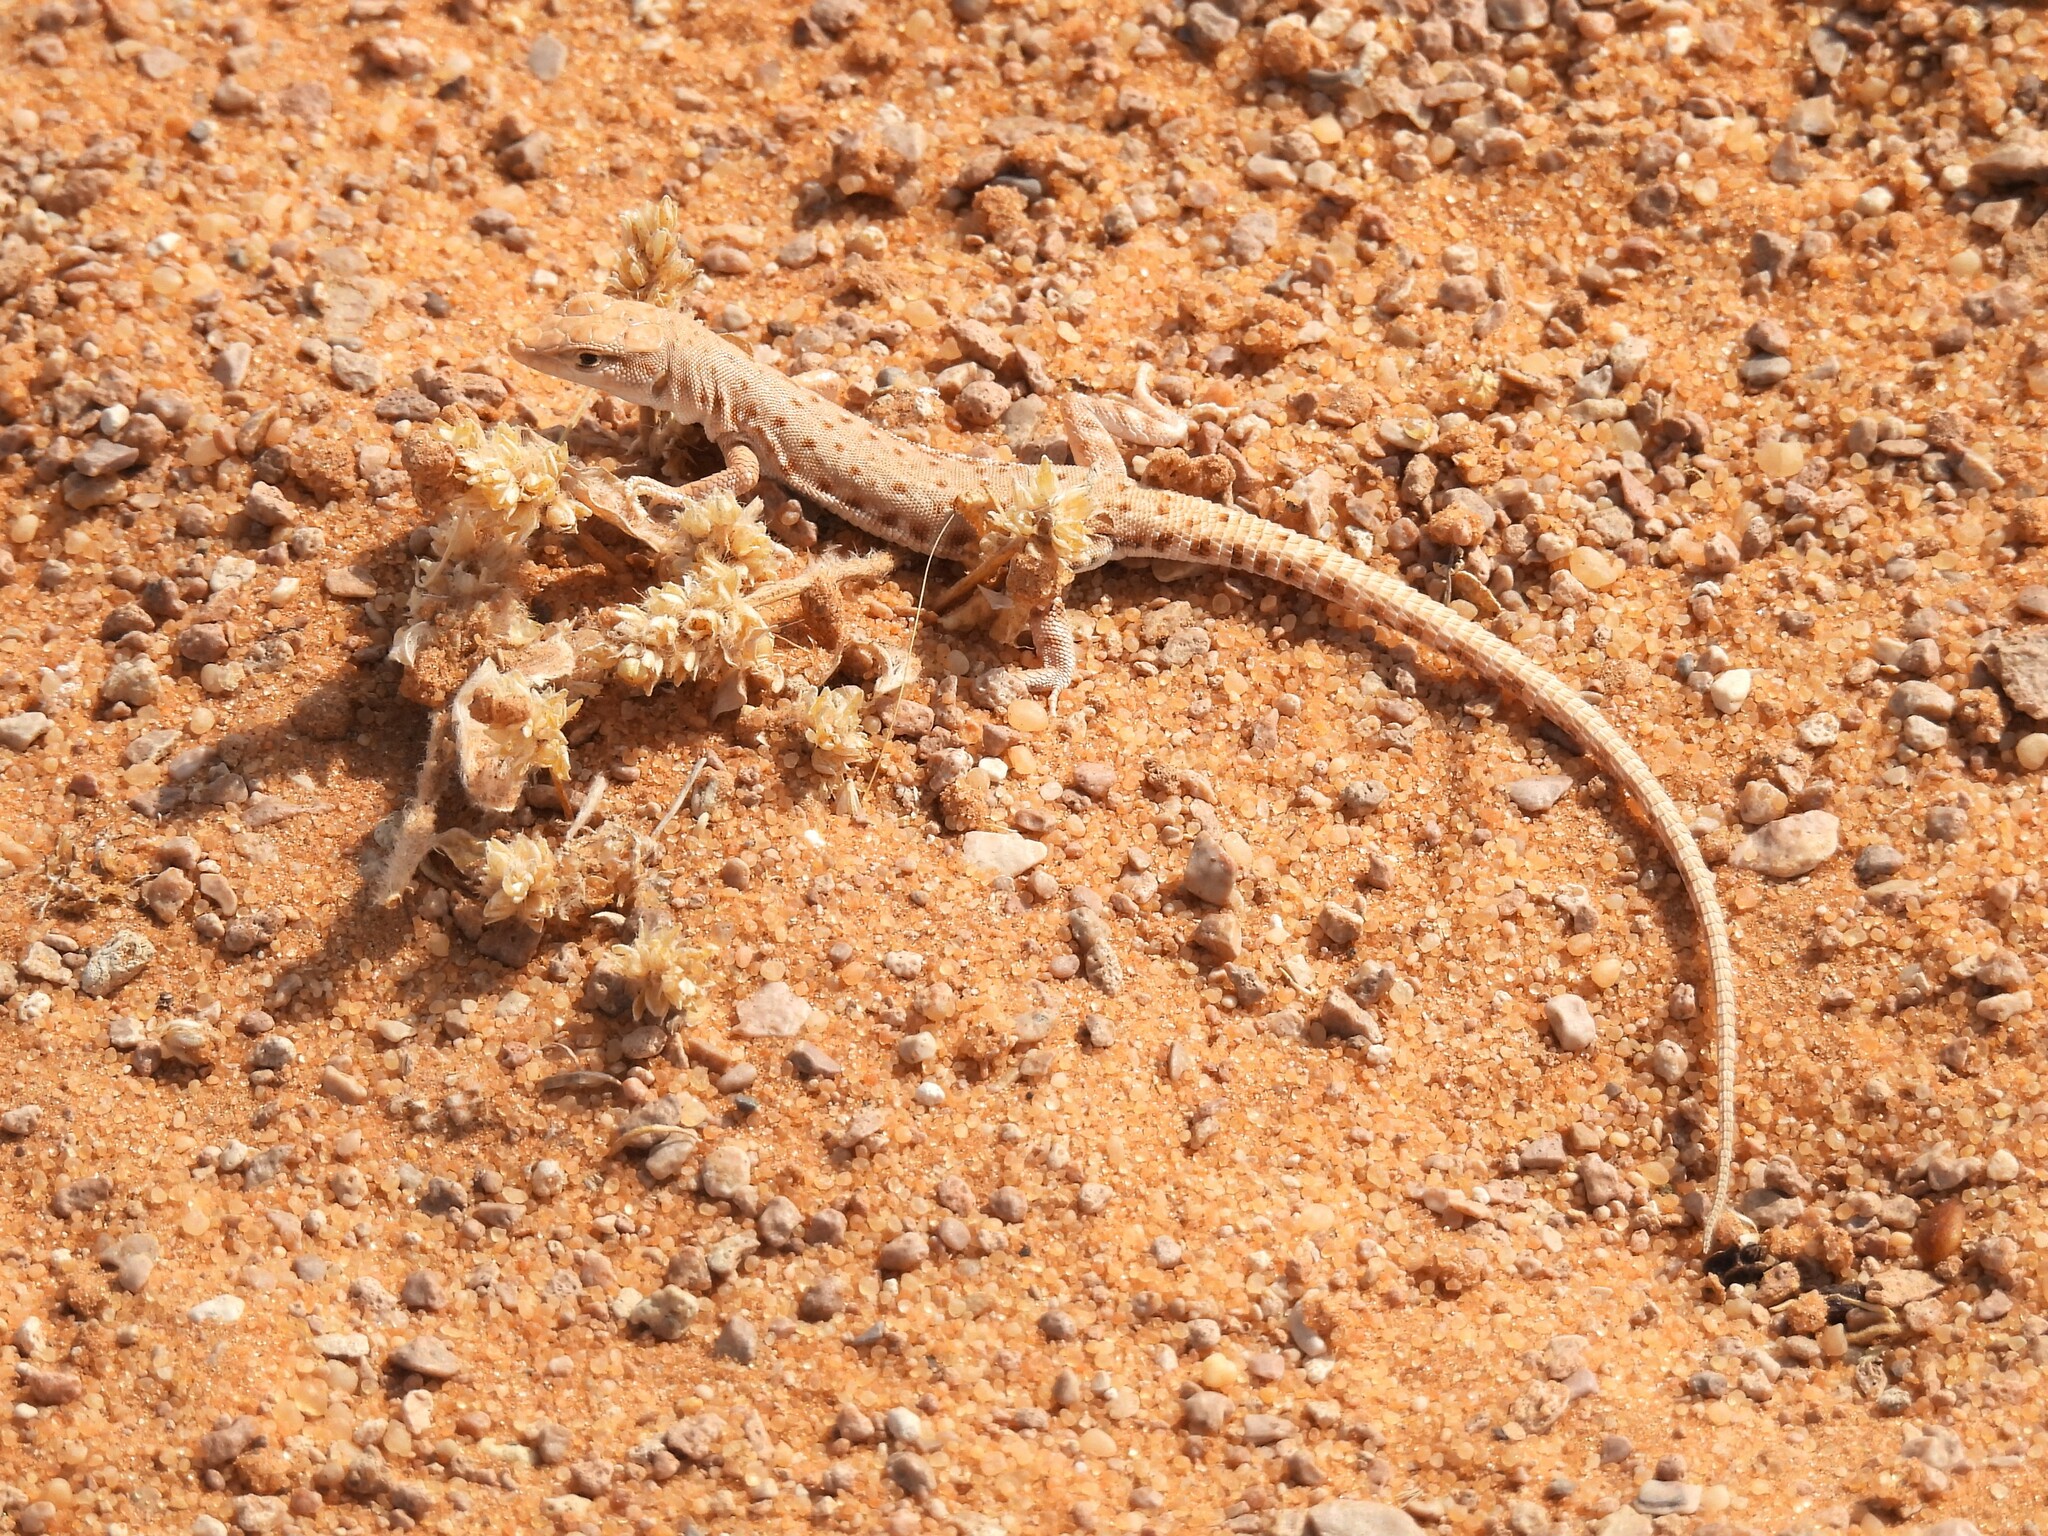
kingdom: Animalia
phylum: Chordata
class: Squamata
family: Lacertidae
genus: Mesalina
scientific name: Mesalina brevirostris
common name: Blanford's short-nosed desert lizard
